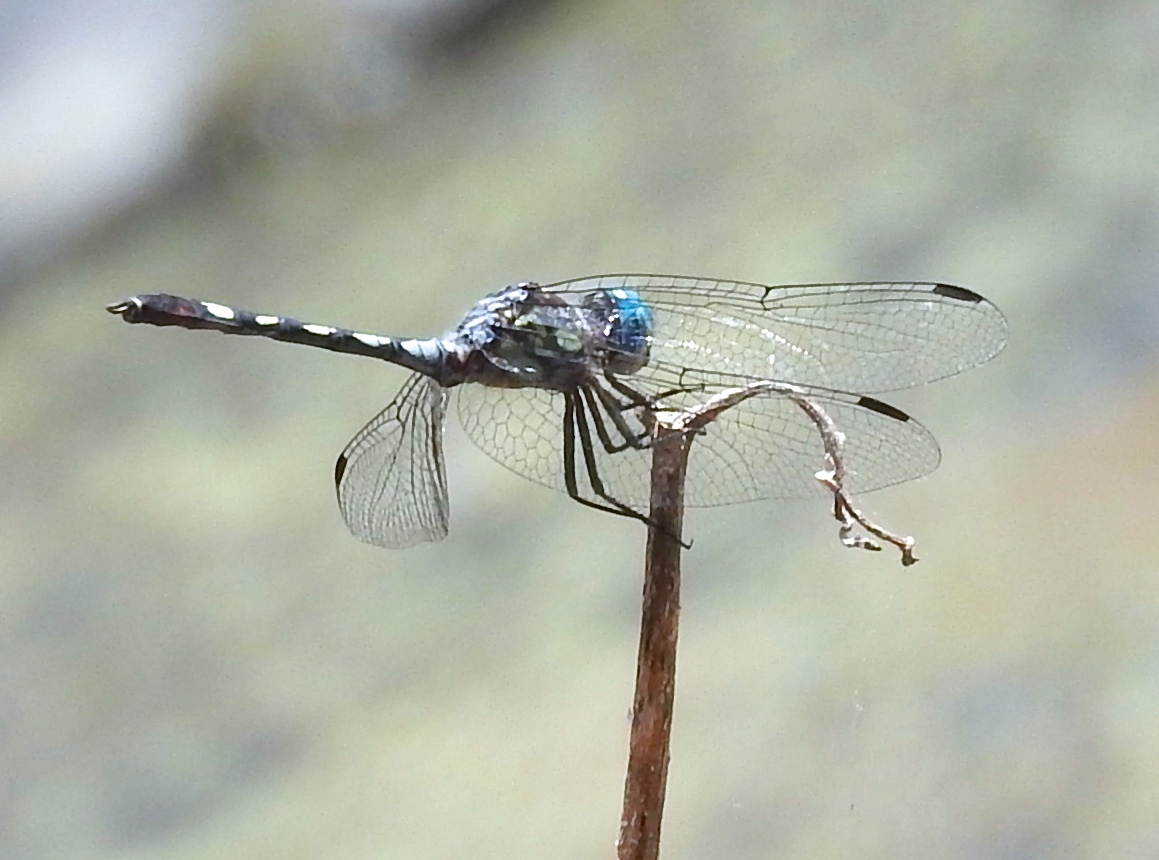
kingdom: Animalia
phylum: Arthropoda
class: Insecta
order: Odonata
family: Libellulidae
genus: Micrathyria
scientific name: Micrathyria hagenii
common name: Thornbush dasher
